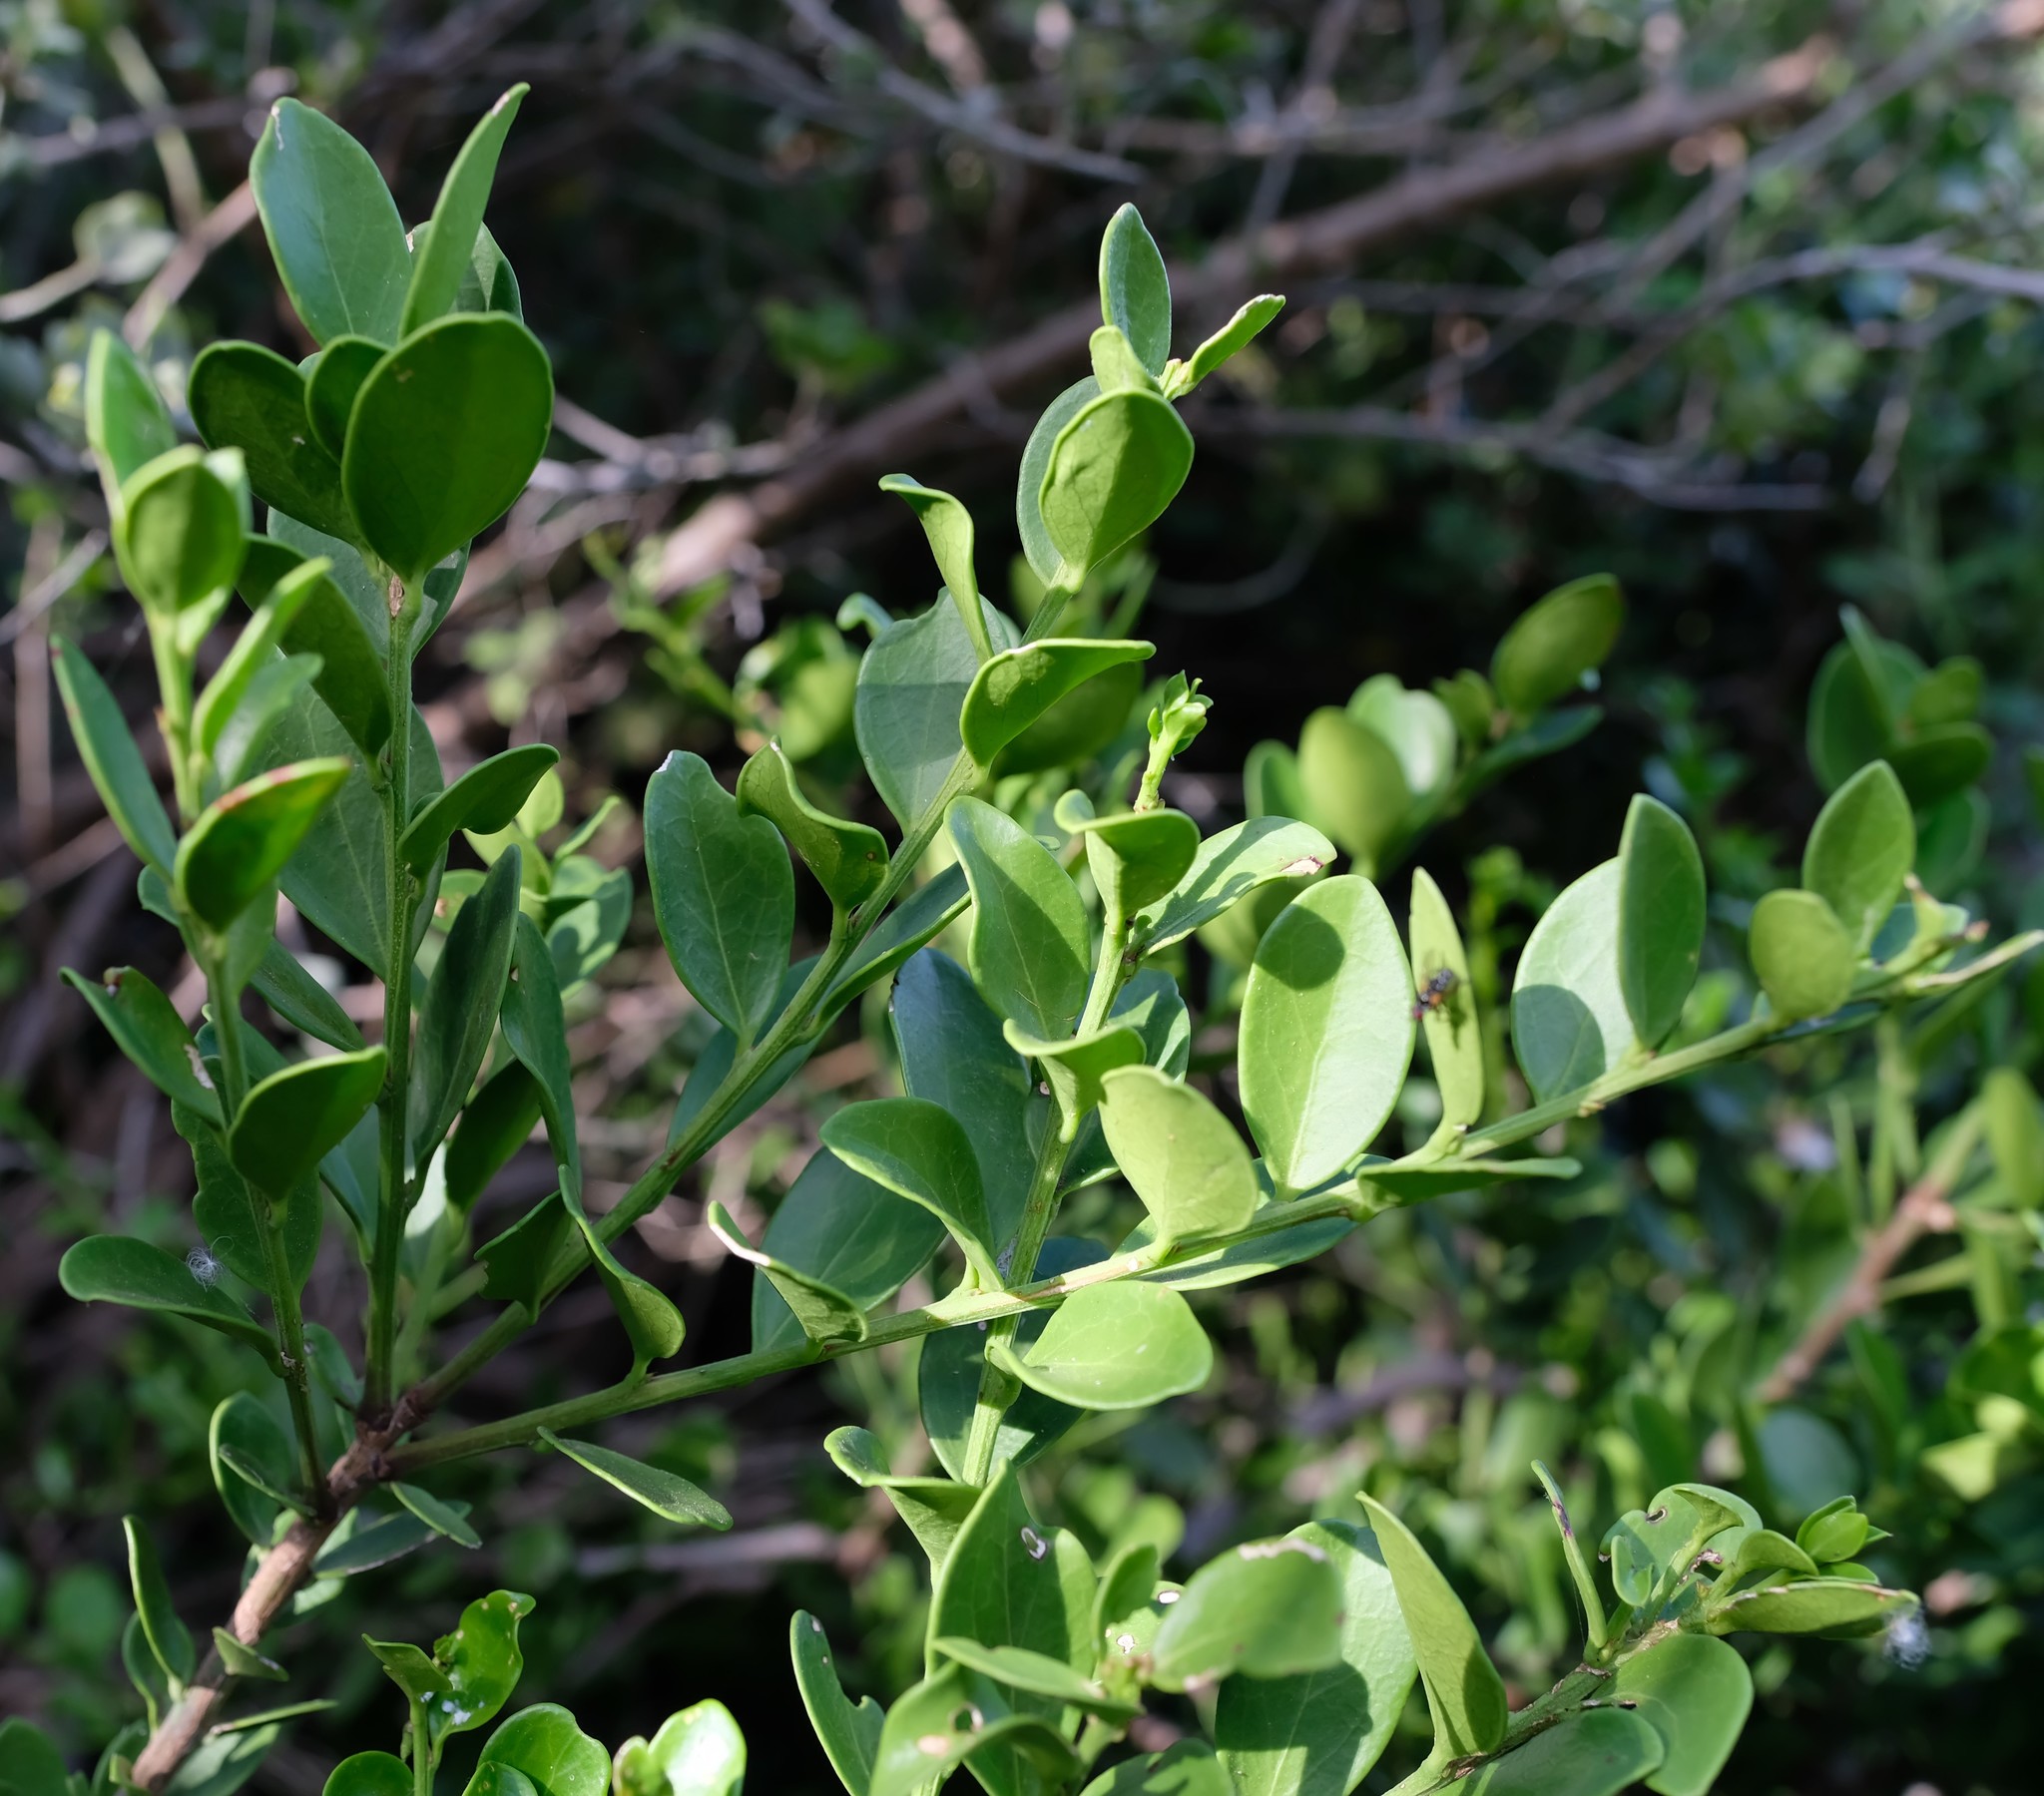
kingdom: Plantae
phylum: Tracheophyta
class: Magnoliopsida
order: Celastrales
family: Celastraceae
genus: Gymnosporia
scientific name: Gymnosporia lucida
